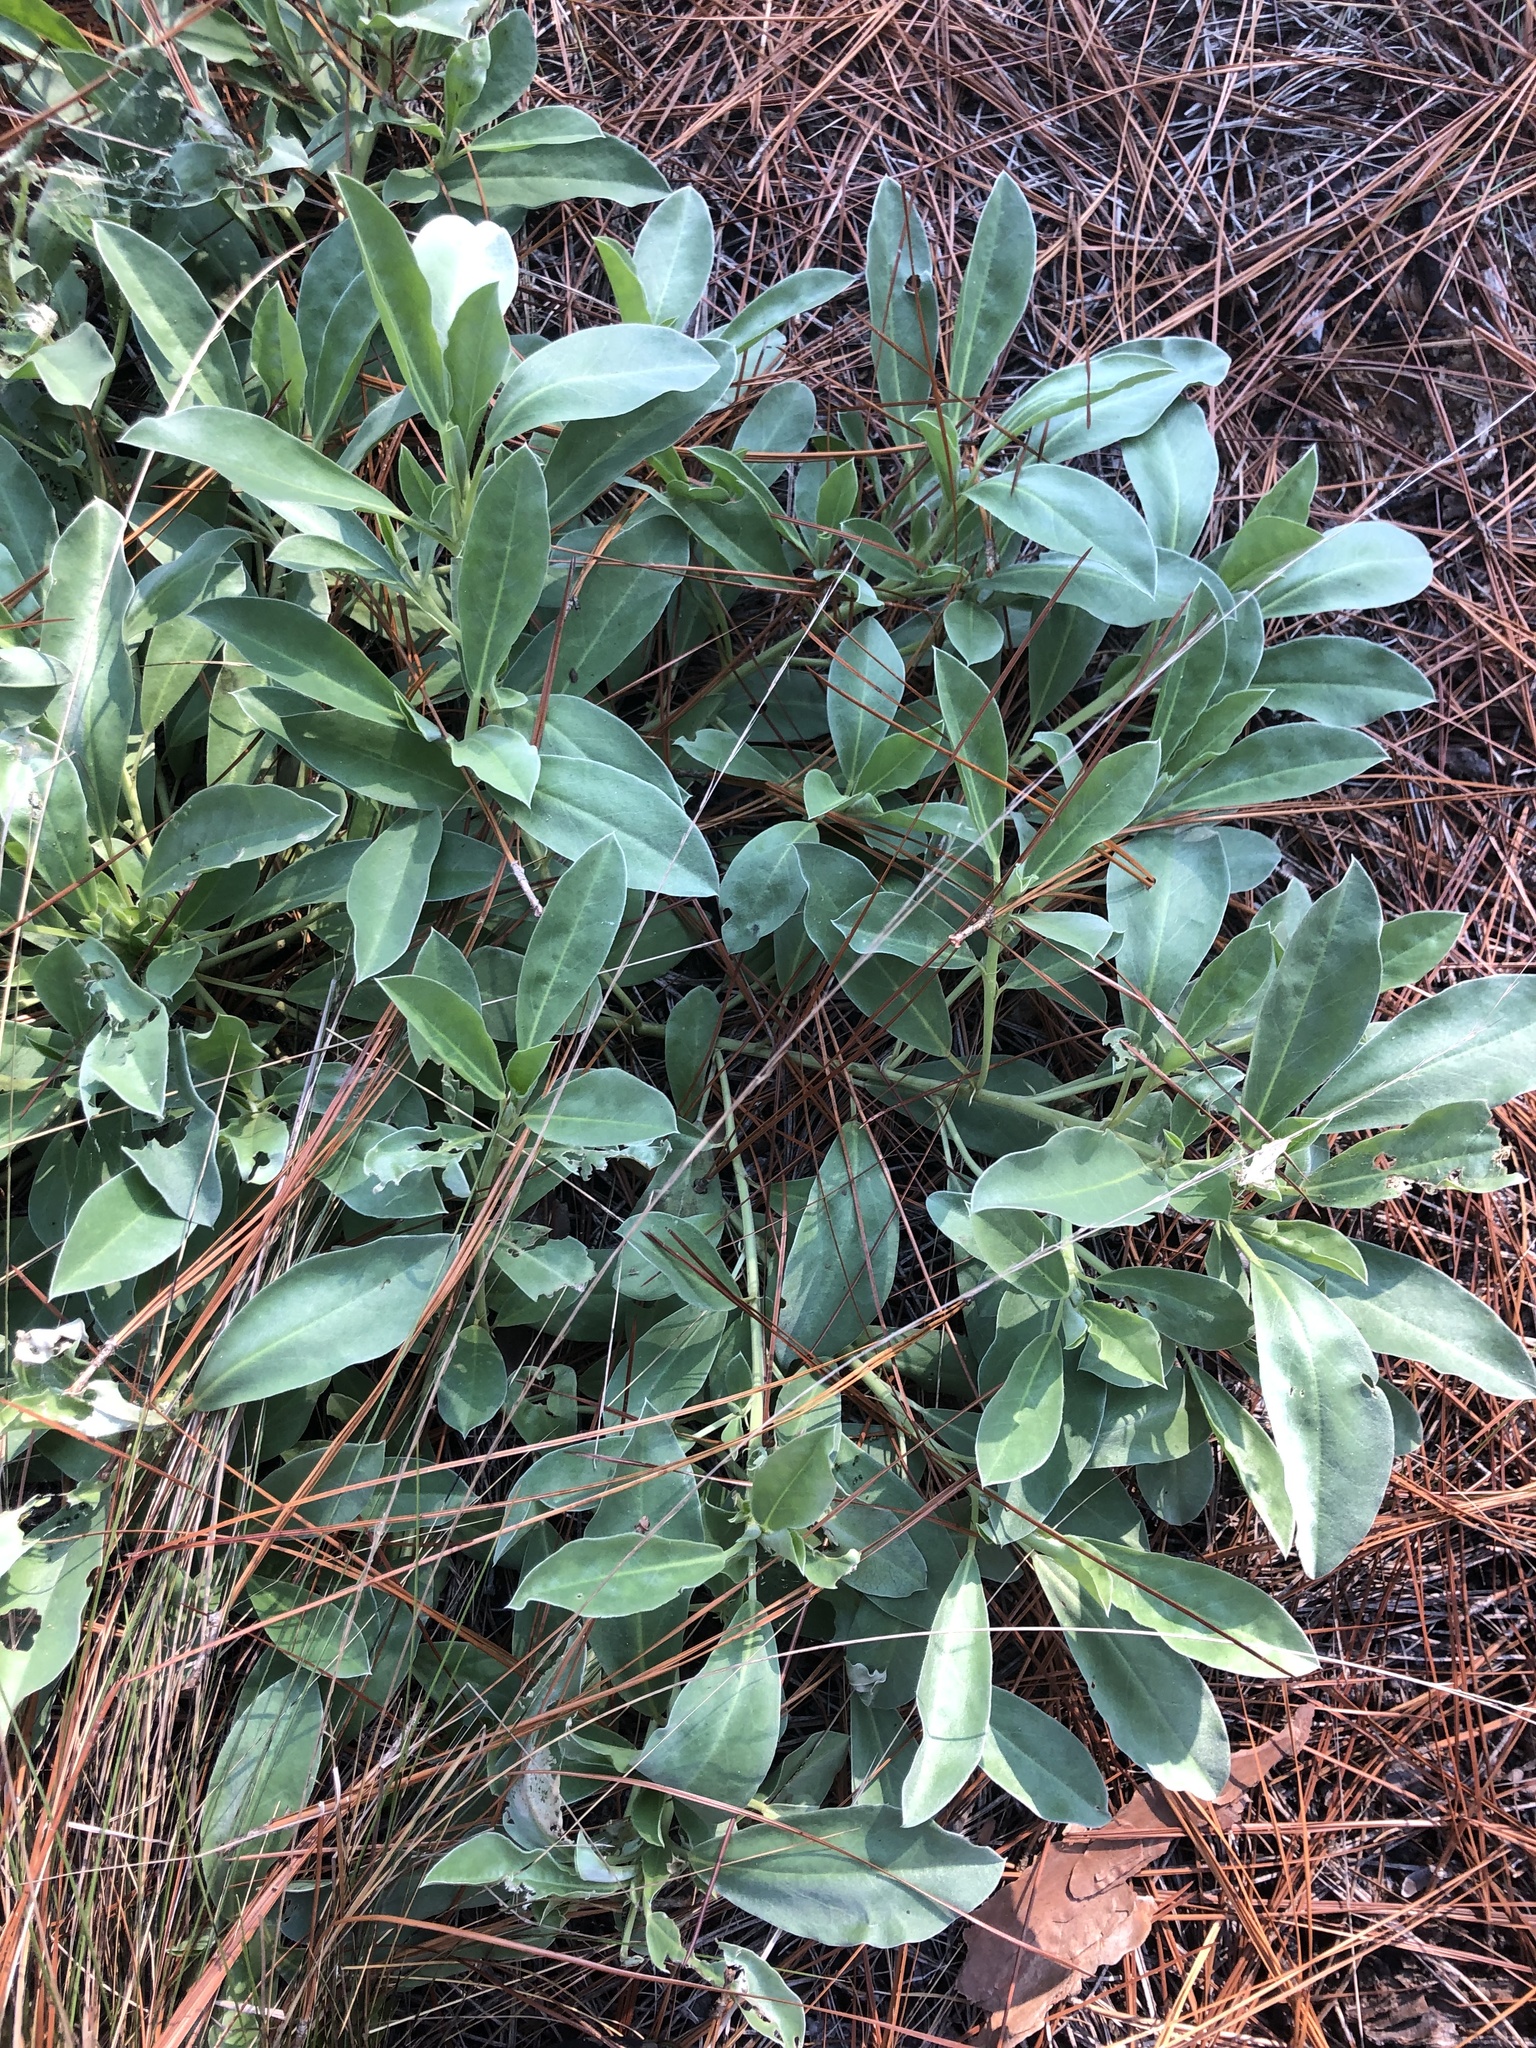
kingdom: Plantae
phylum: Tracheophyta
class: Magnoliopsida
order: Fabales
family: Fabaceae
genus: Lupinus
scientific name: Lupinus diffusus
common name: Oak ridge lupine
